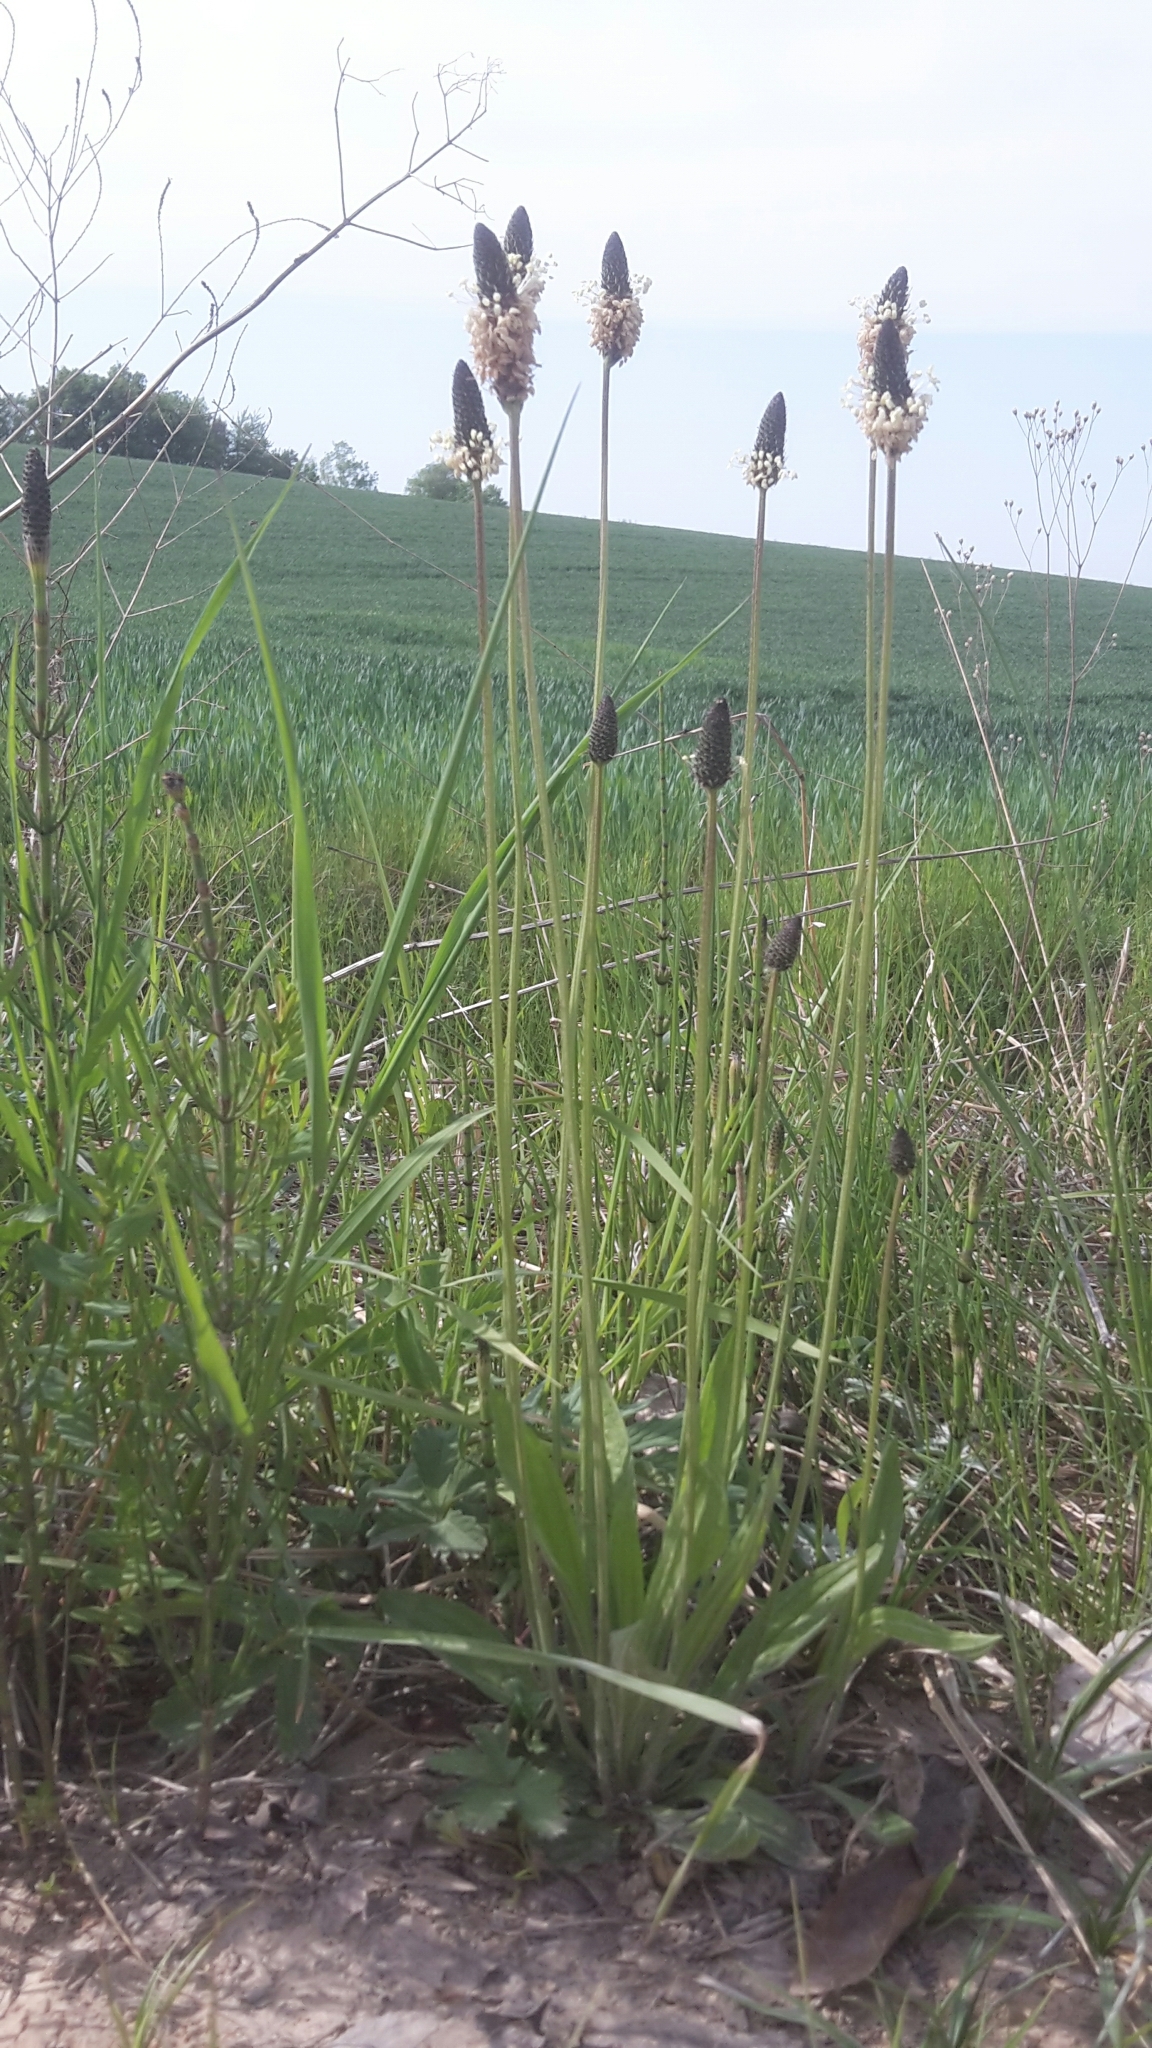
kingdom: Plantae
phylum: Tracheophyta
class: Magnoliopsida
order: Lamiales
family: Plantaginaceae
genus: Plantago
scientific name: Plantago lanceolata
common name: Ribwort plantain
